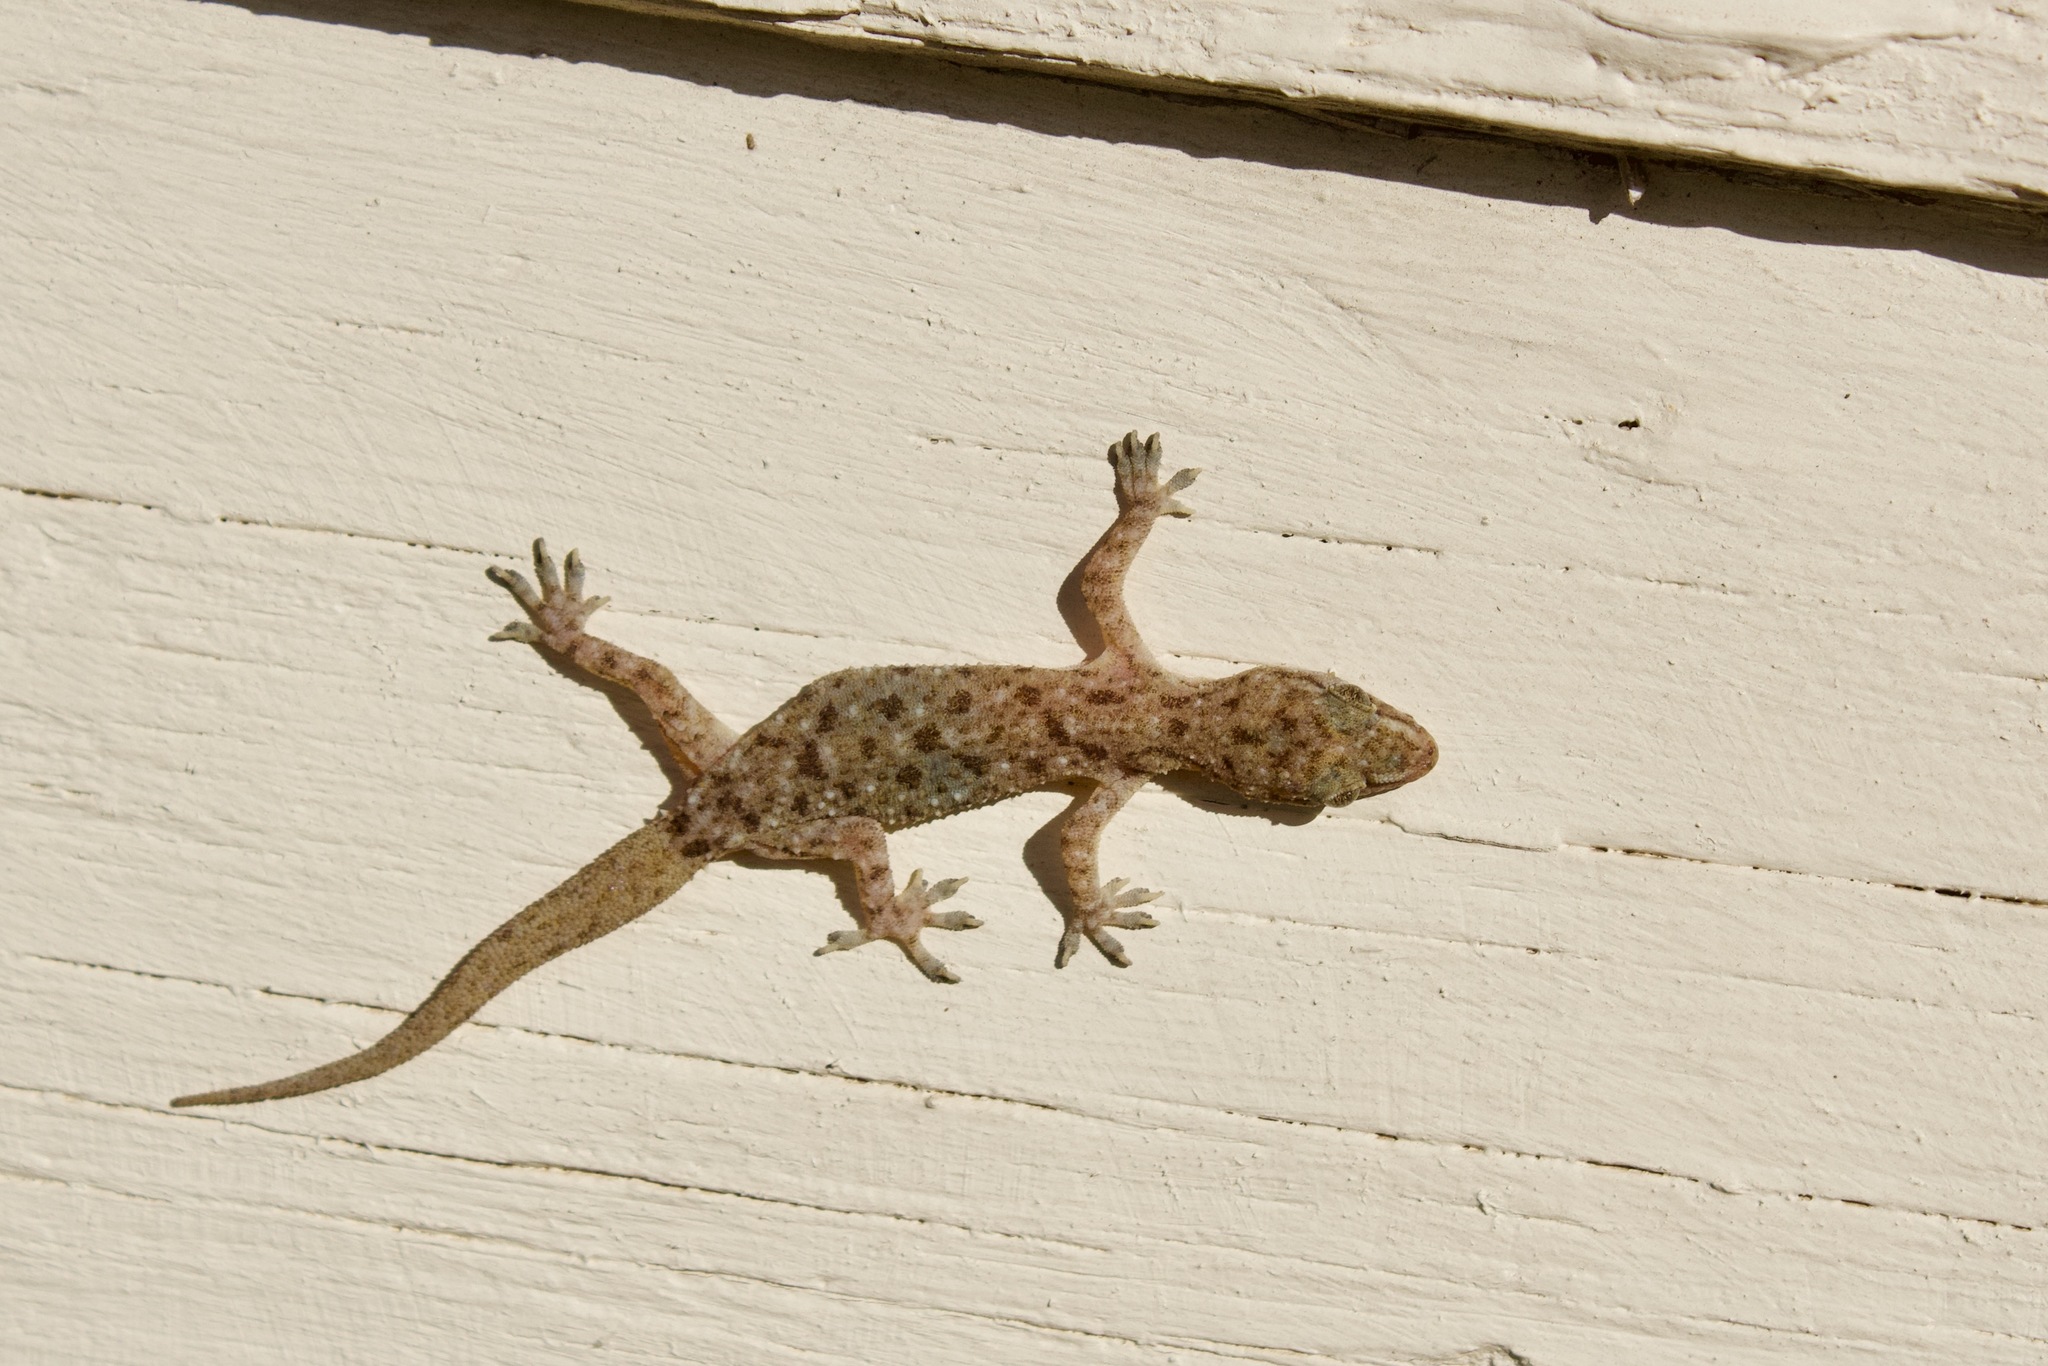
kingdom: Animalia
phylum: Chordata
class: Squamata
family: Gekkonidae
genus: Hemidactylus
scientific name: Hemidactylus parvimaculatus
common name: Spotted house gecko
